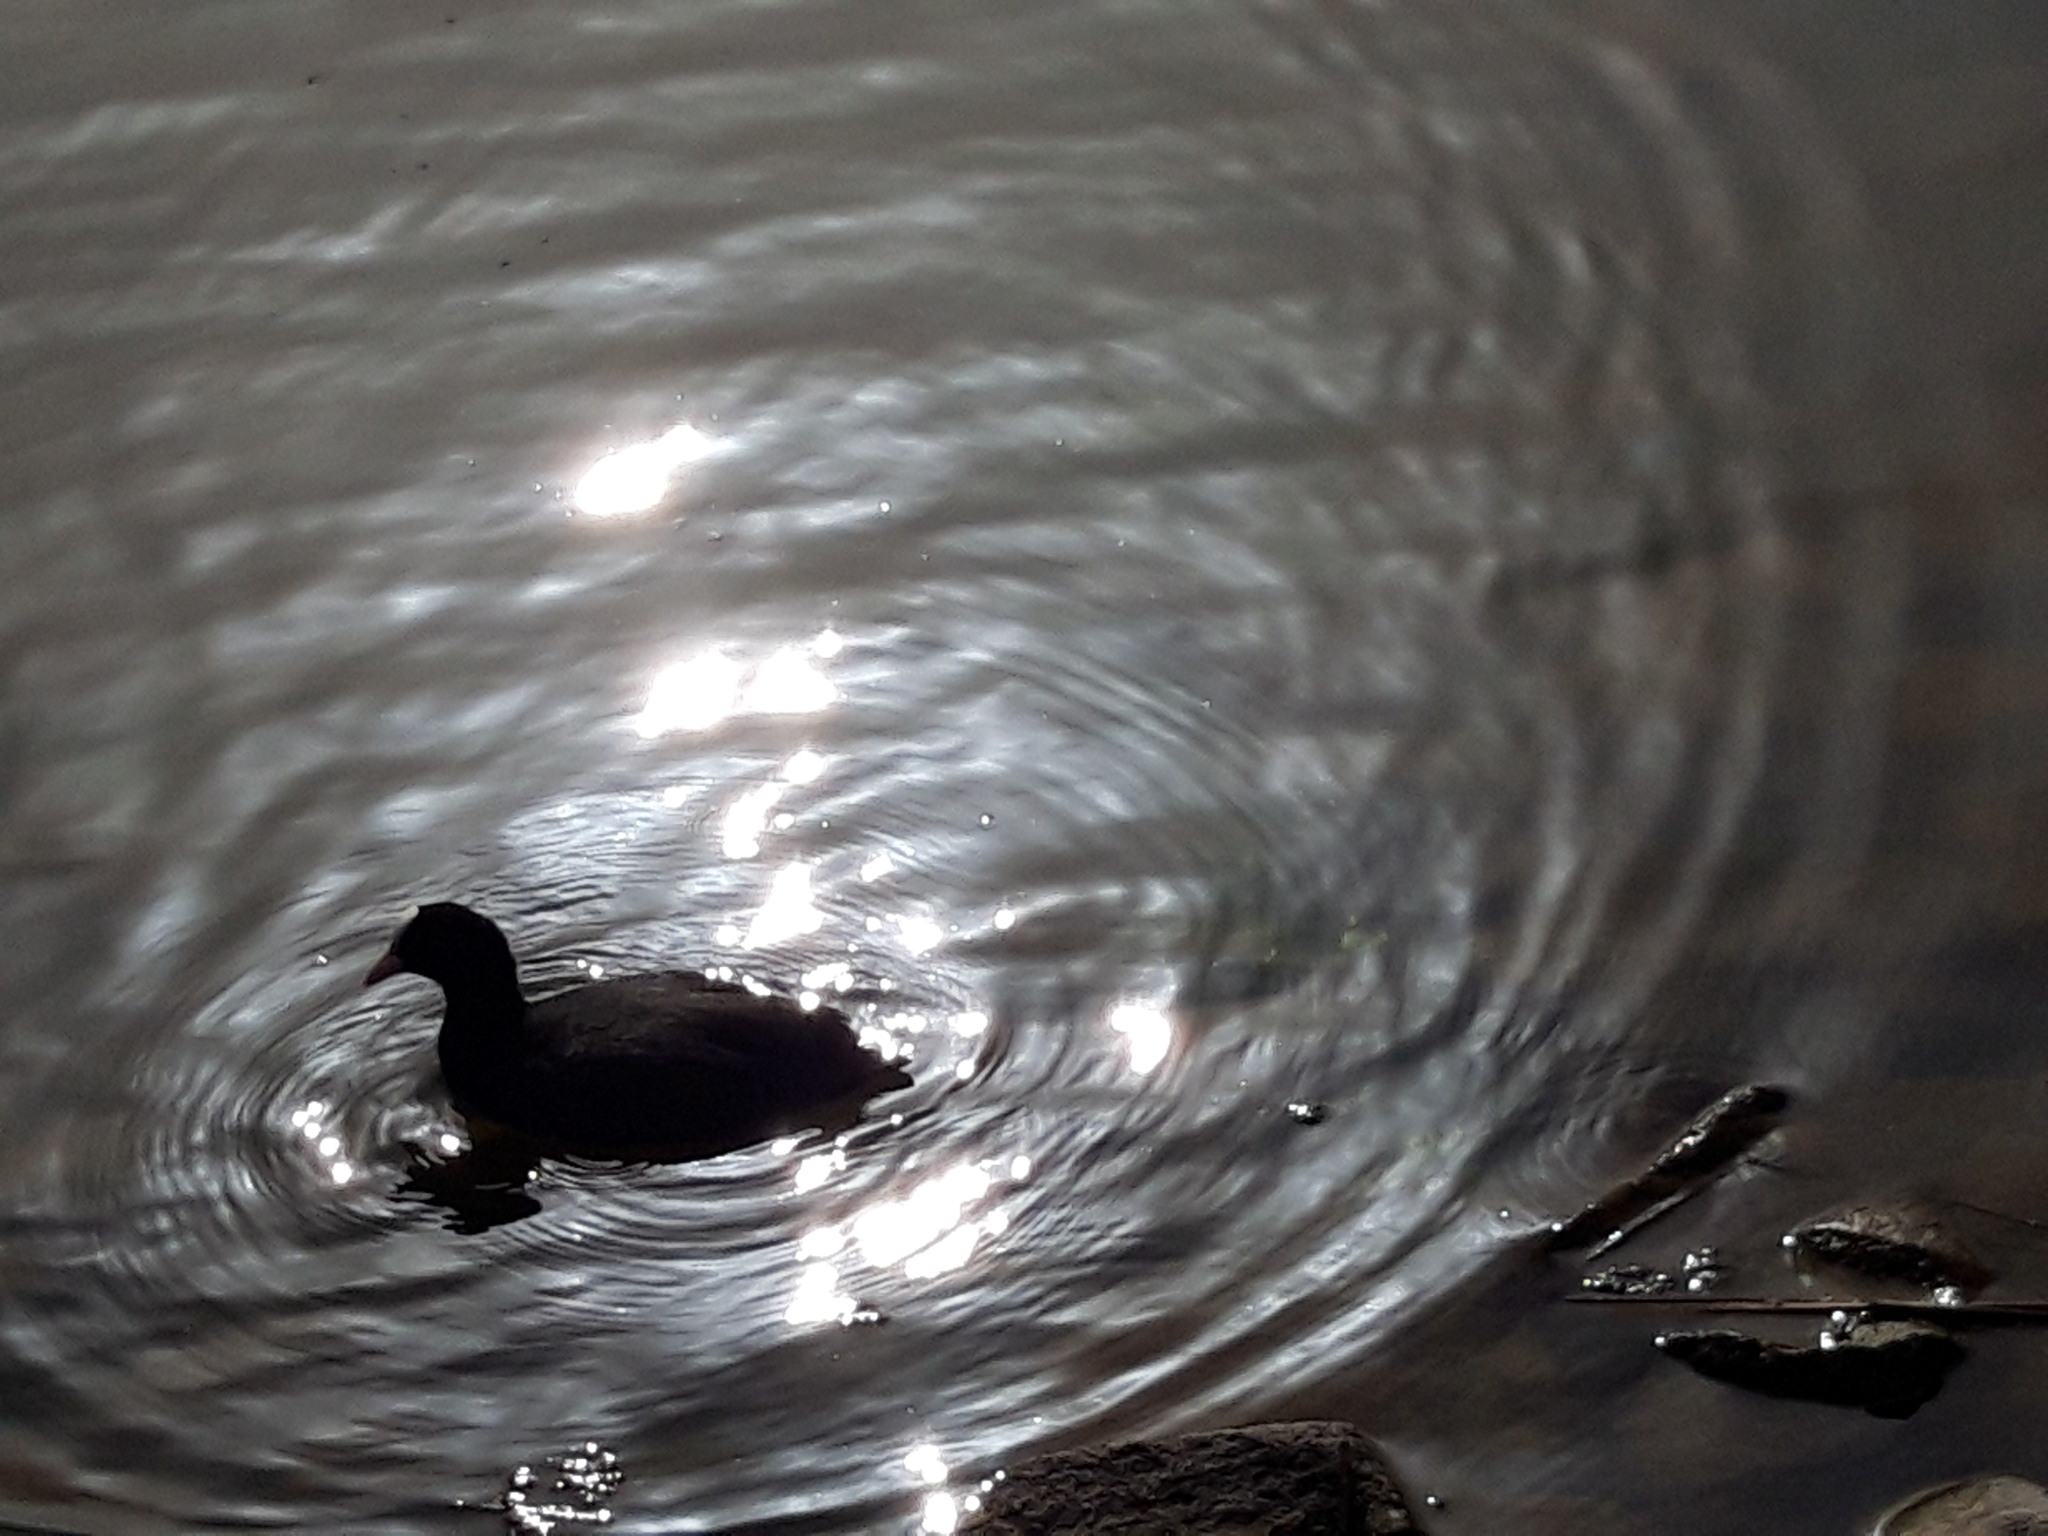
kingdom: Animalia
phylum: Chordata
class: Aves
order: Gruiformes
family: Rallidae
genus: Fulica
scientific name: Fulica atra
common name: Eurasian coot
